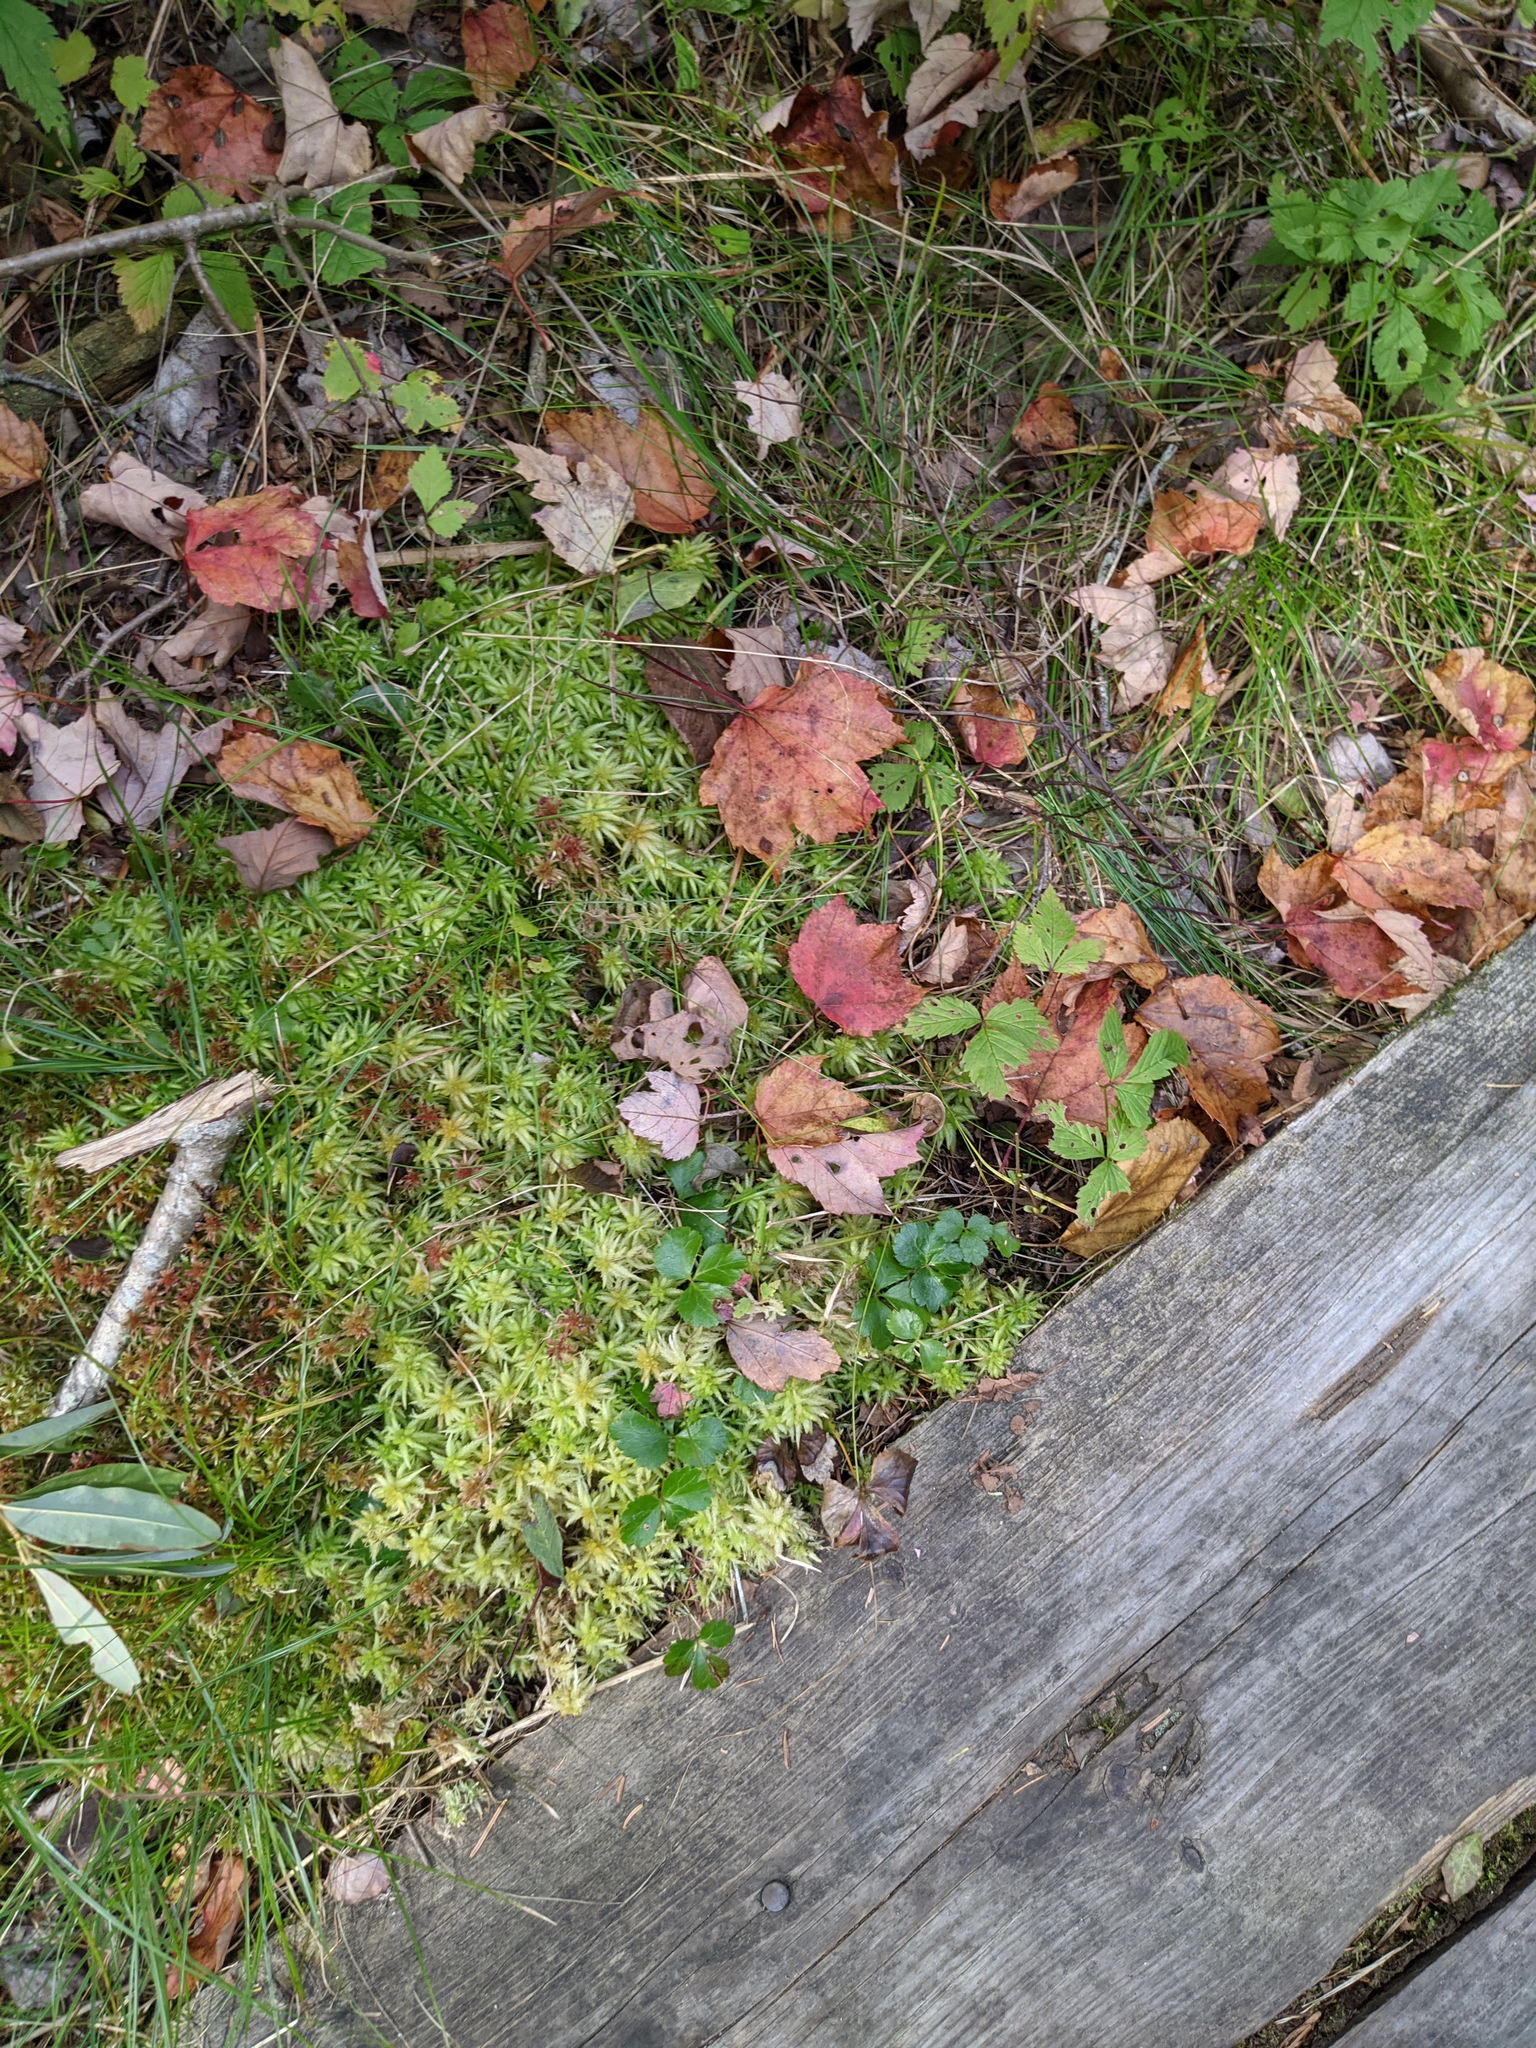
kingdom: Plantae
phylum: Bryophyta
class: Sphagnopsida
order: Sphagnales
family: Sphagnaceae
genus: Sphagnum
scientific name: Sphagnum
